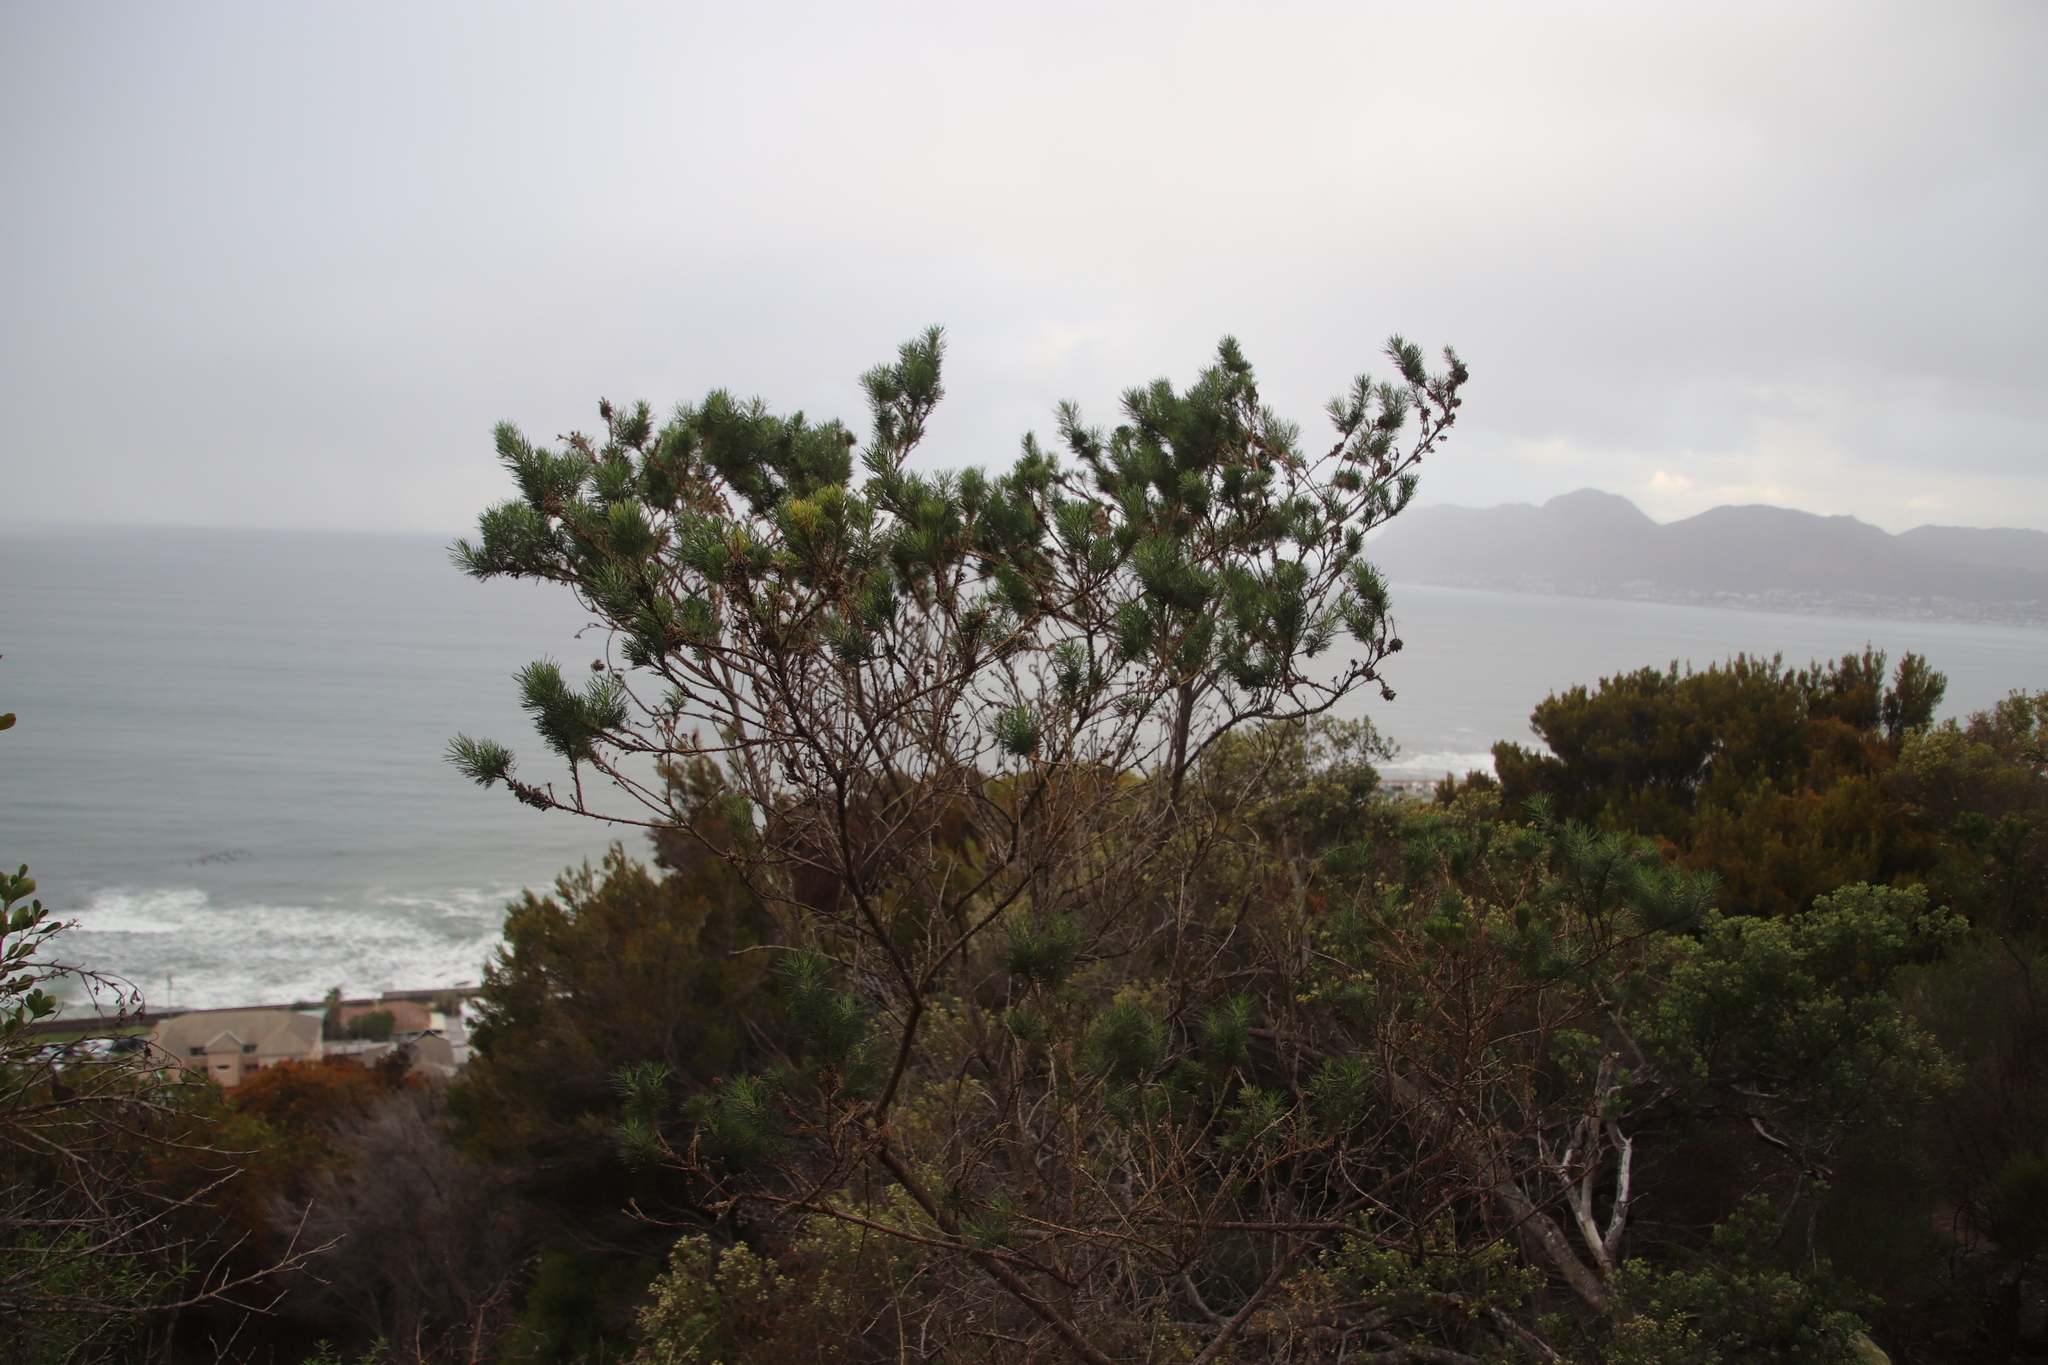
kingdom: Plantae
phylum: Tracheophyta
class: Magnoliopsida
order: Fabales
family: Fabaceae
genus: Psoralea
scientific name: Psoralea pinnata
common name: African scurfpea
